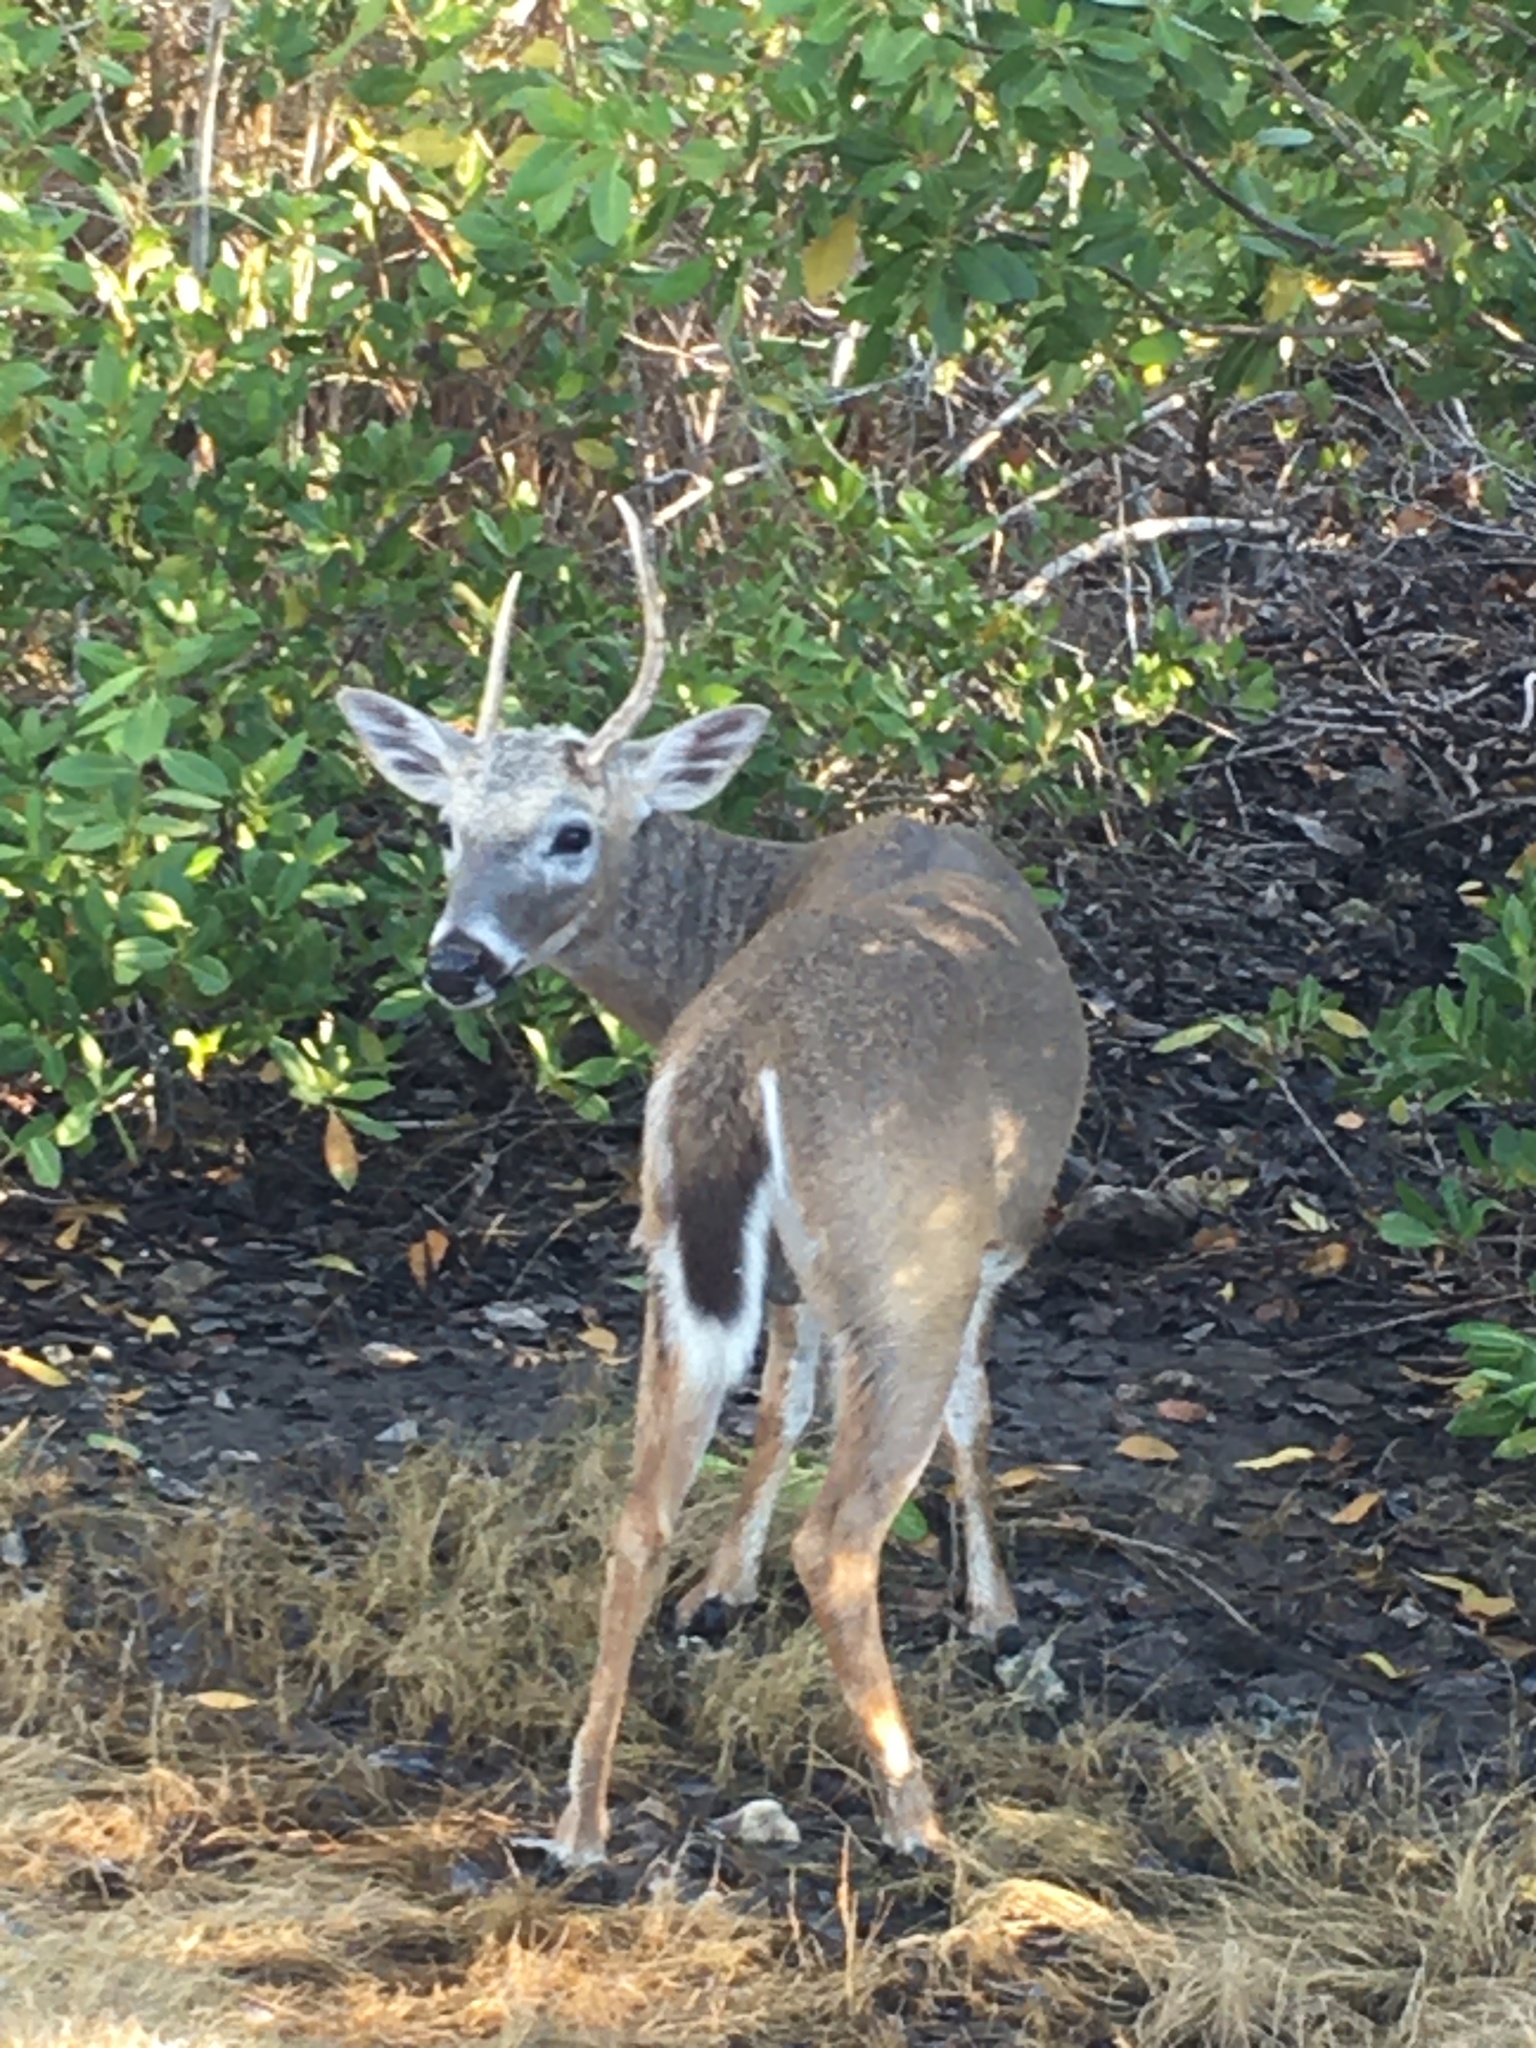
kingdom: Animalia
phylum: Chordata
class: Mammalia
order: Artiodactyla
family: Cervidae
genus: Odocoileus
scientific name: Odocoileus virginianus
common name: White-tailed deer
